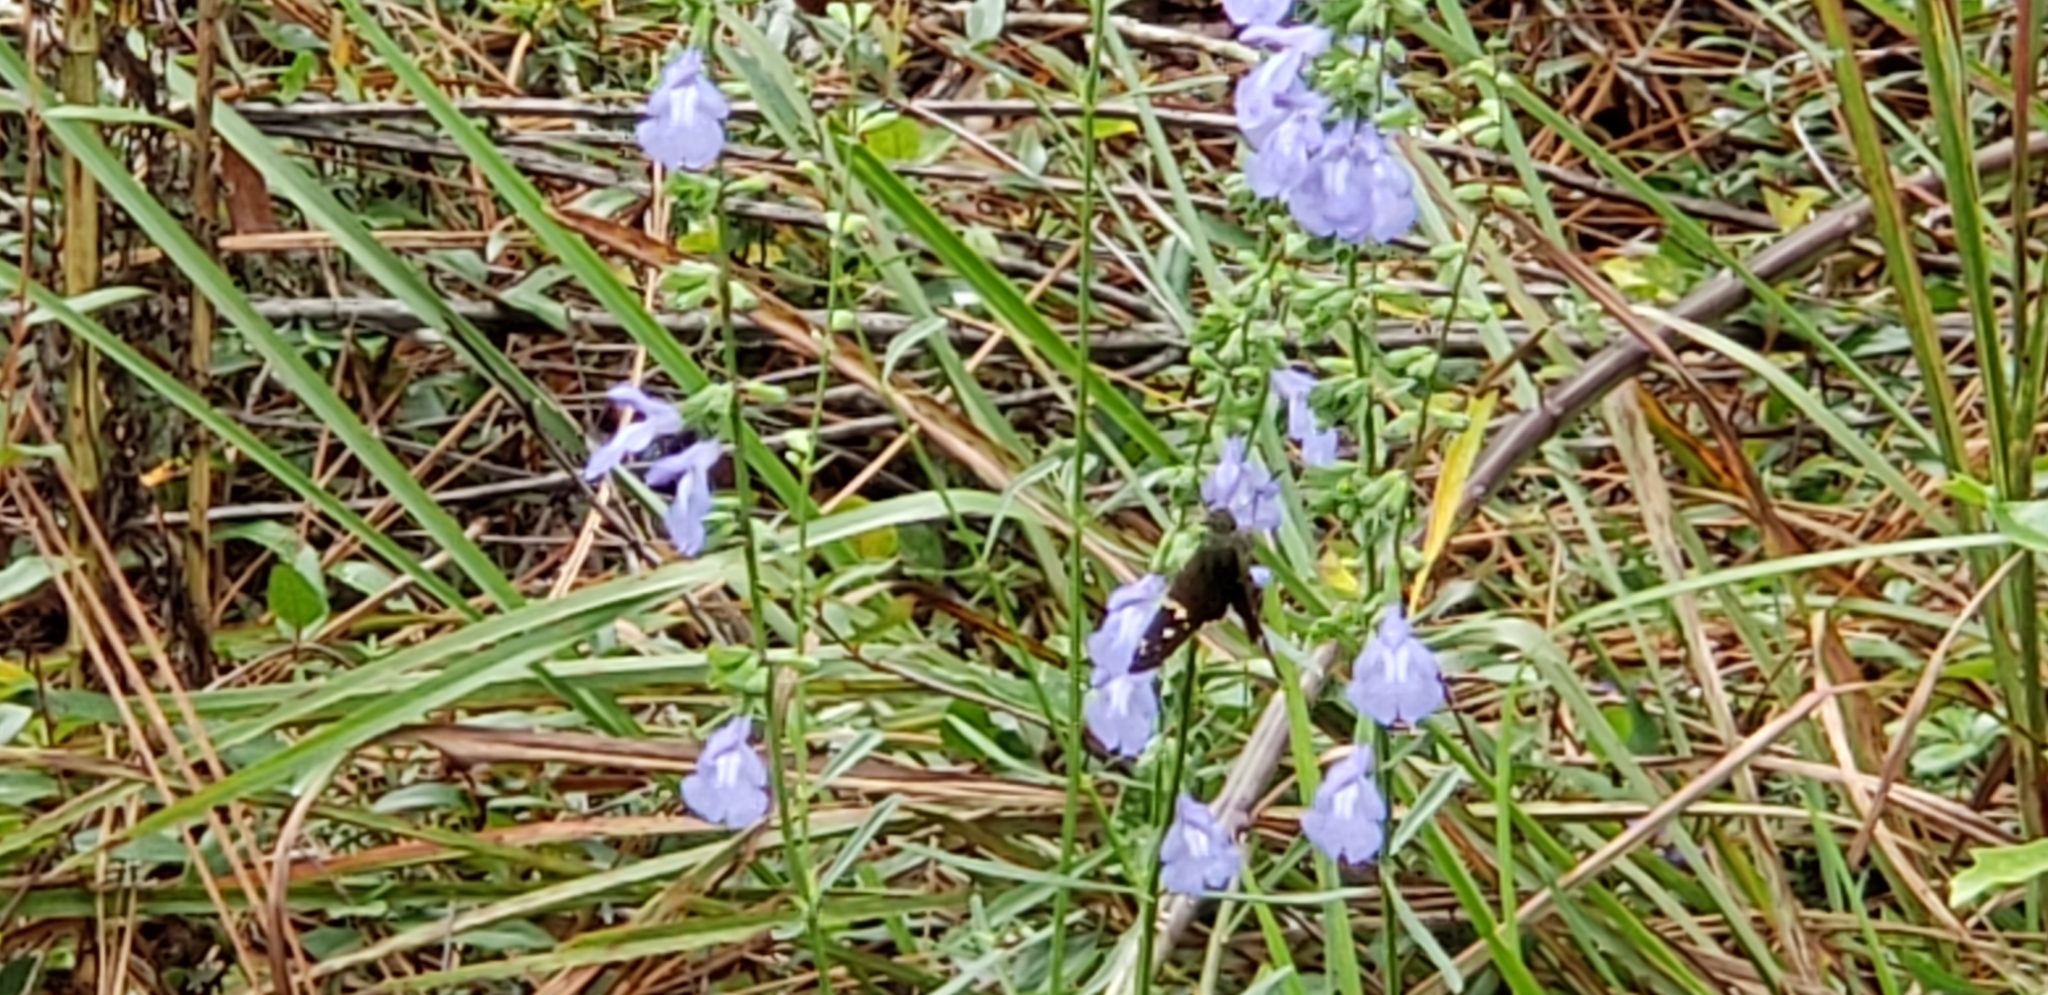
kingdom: Plantae
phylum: Tracheophyta
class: Magnoliopsida
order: Lamiales
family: Lamiaceae
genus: Salvia
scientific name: Salvia azurea
